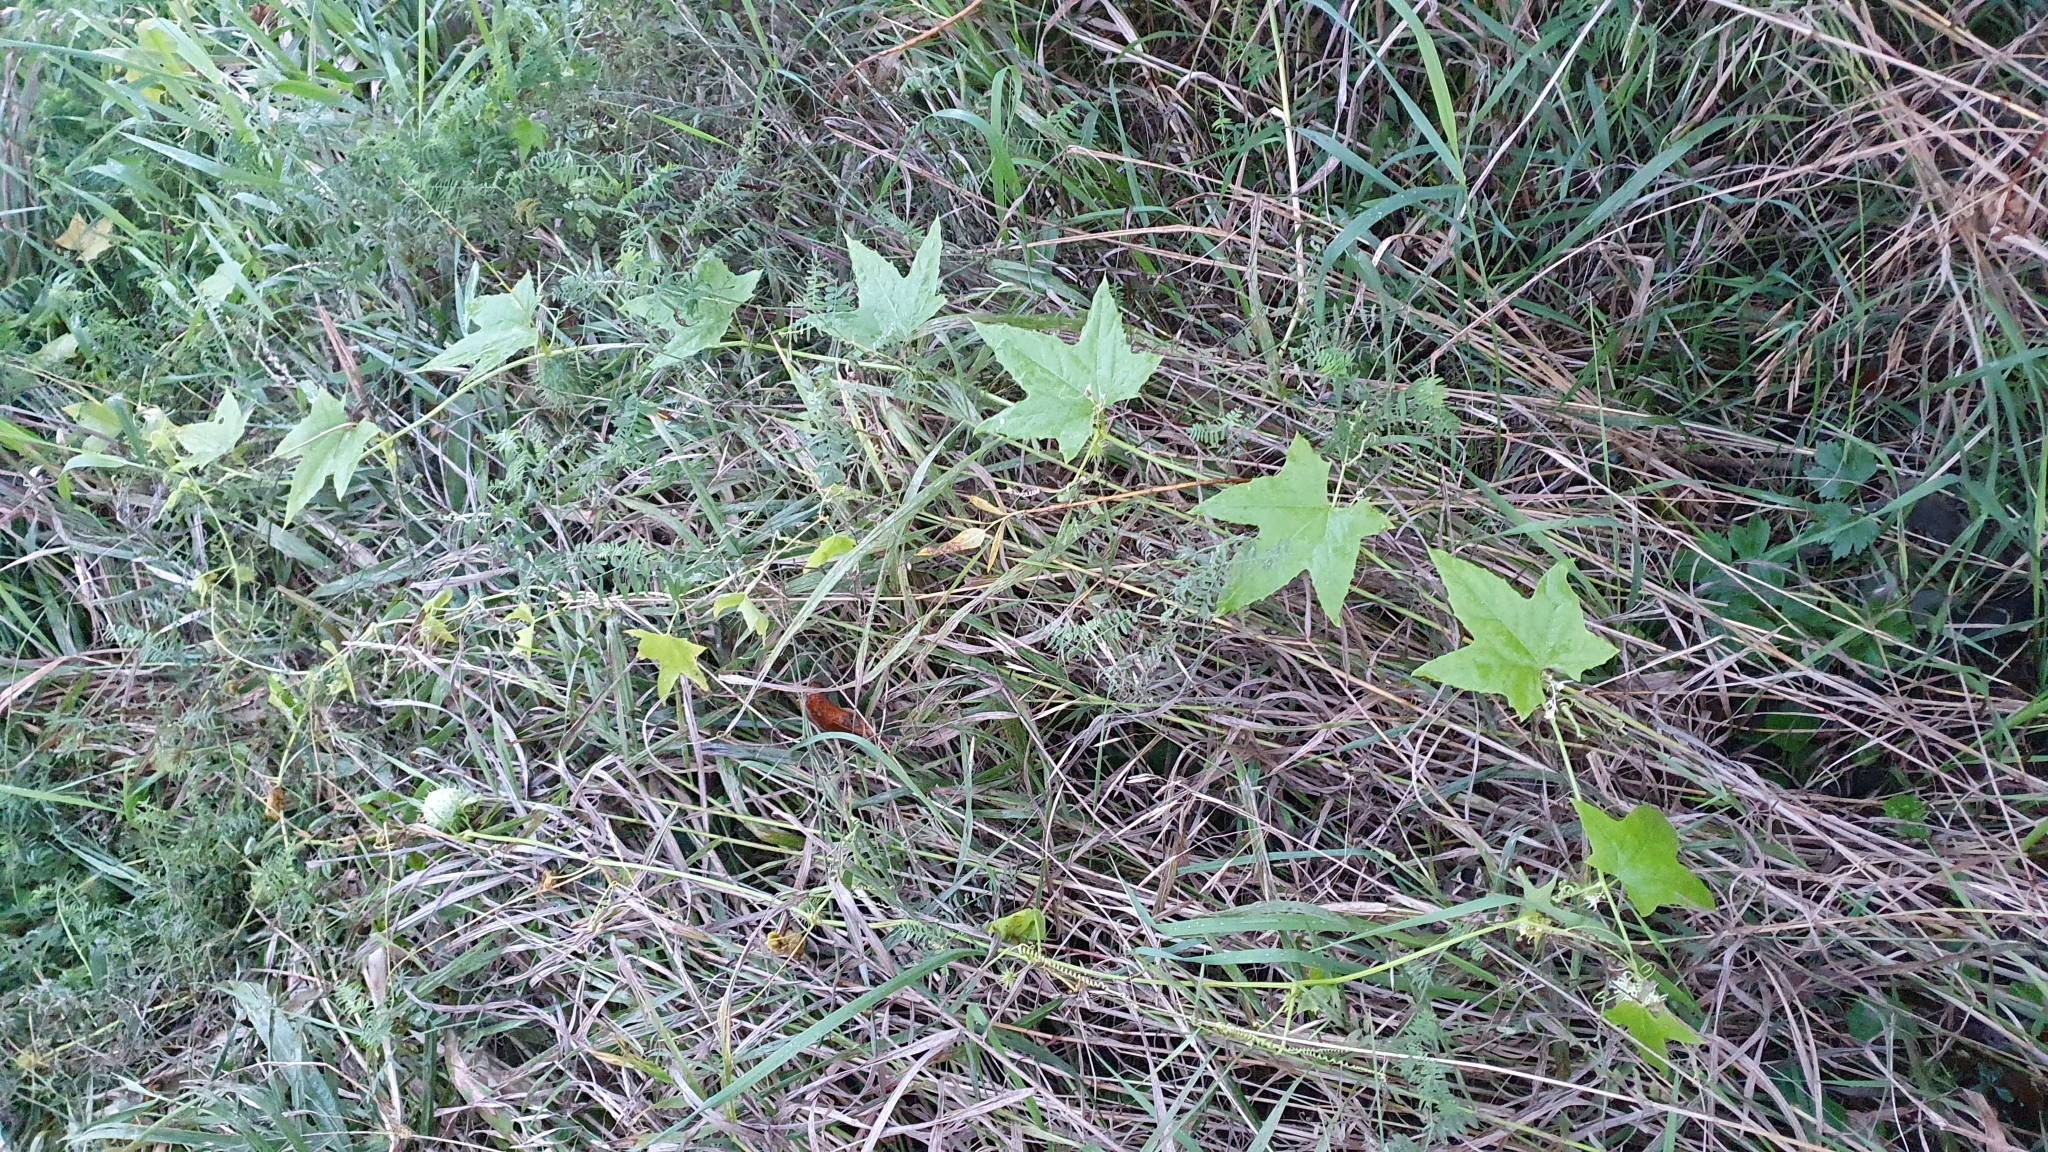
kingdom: Plantae
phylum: Tracheophyta
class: Magnoliopsida
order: Cucurbitales
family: Cucurbitaceae
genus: Echinocystis
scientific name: Echinocystis lobata
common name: Wild cucumber
